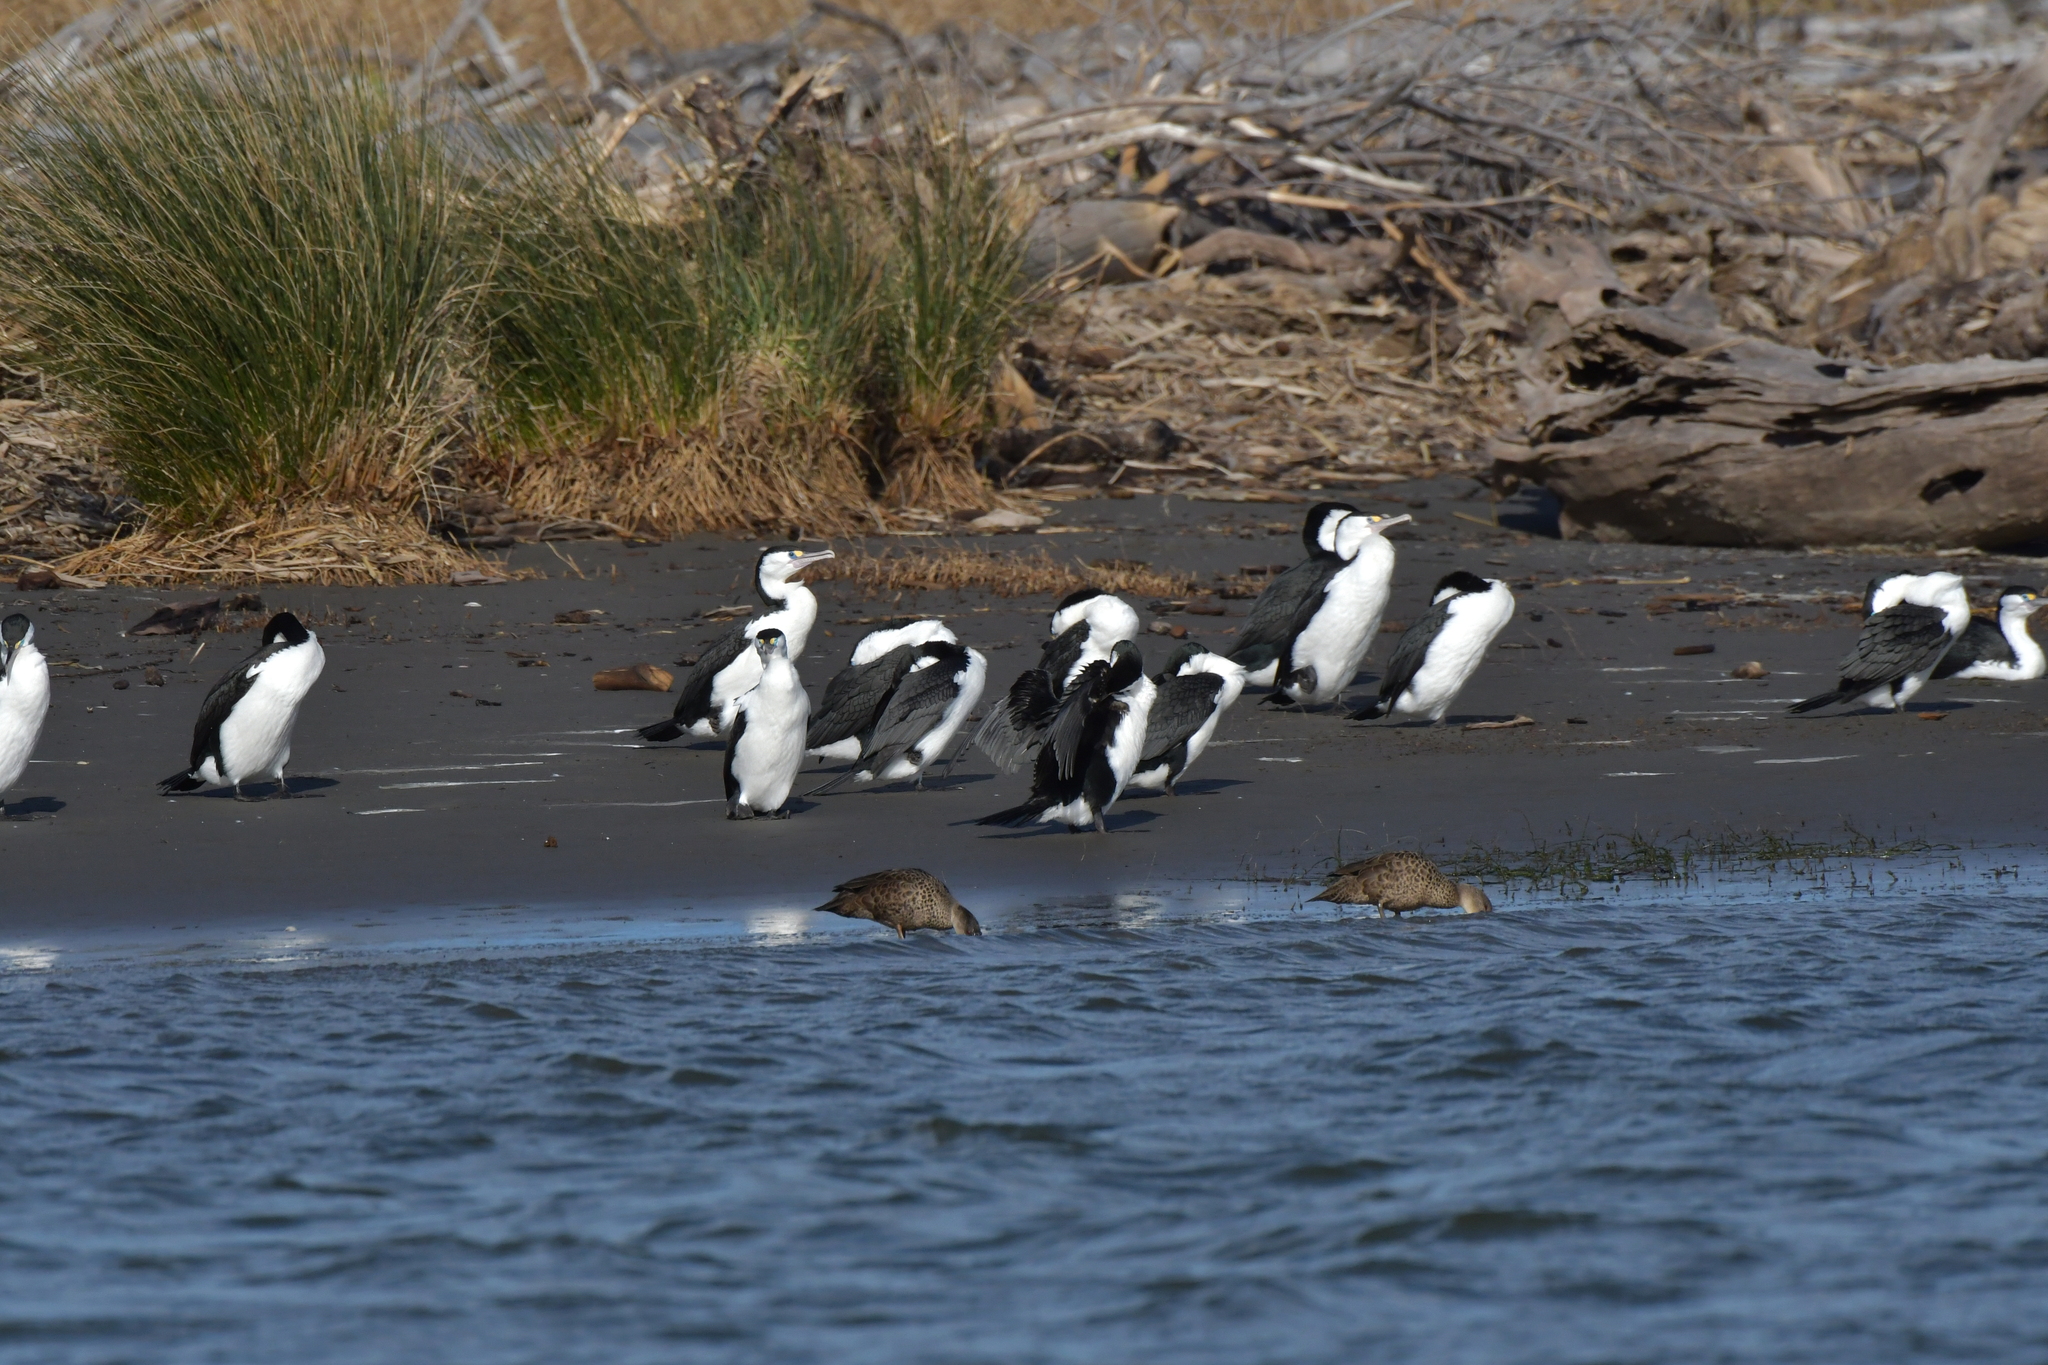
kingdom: Animalia
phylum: Chordata
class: Aves
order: Suliformes
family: Phalacrocoracidae
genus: Phalacrocorax
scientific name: Phalacrocorax varius
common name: Pied cormorant
